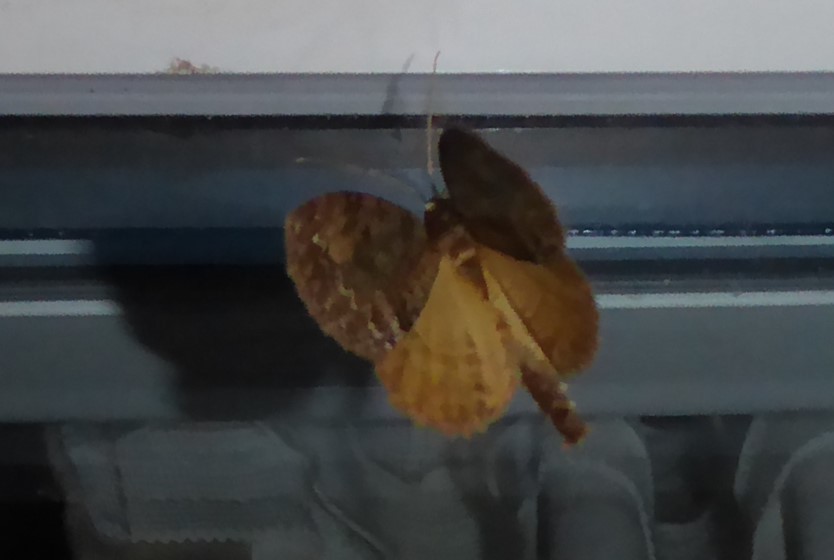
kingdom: Animalia
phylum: Arthropoda
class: Insecta
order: Lepidoptera
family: Geometridae
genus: Pseudocoremia
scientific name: Pseudocoremia suavis
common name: Common forest looper
